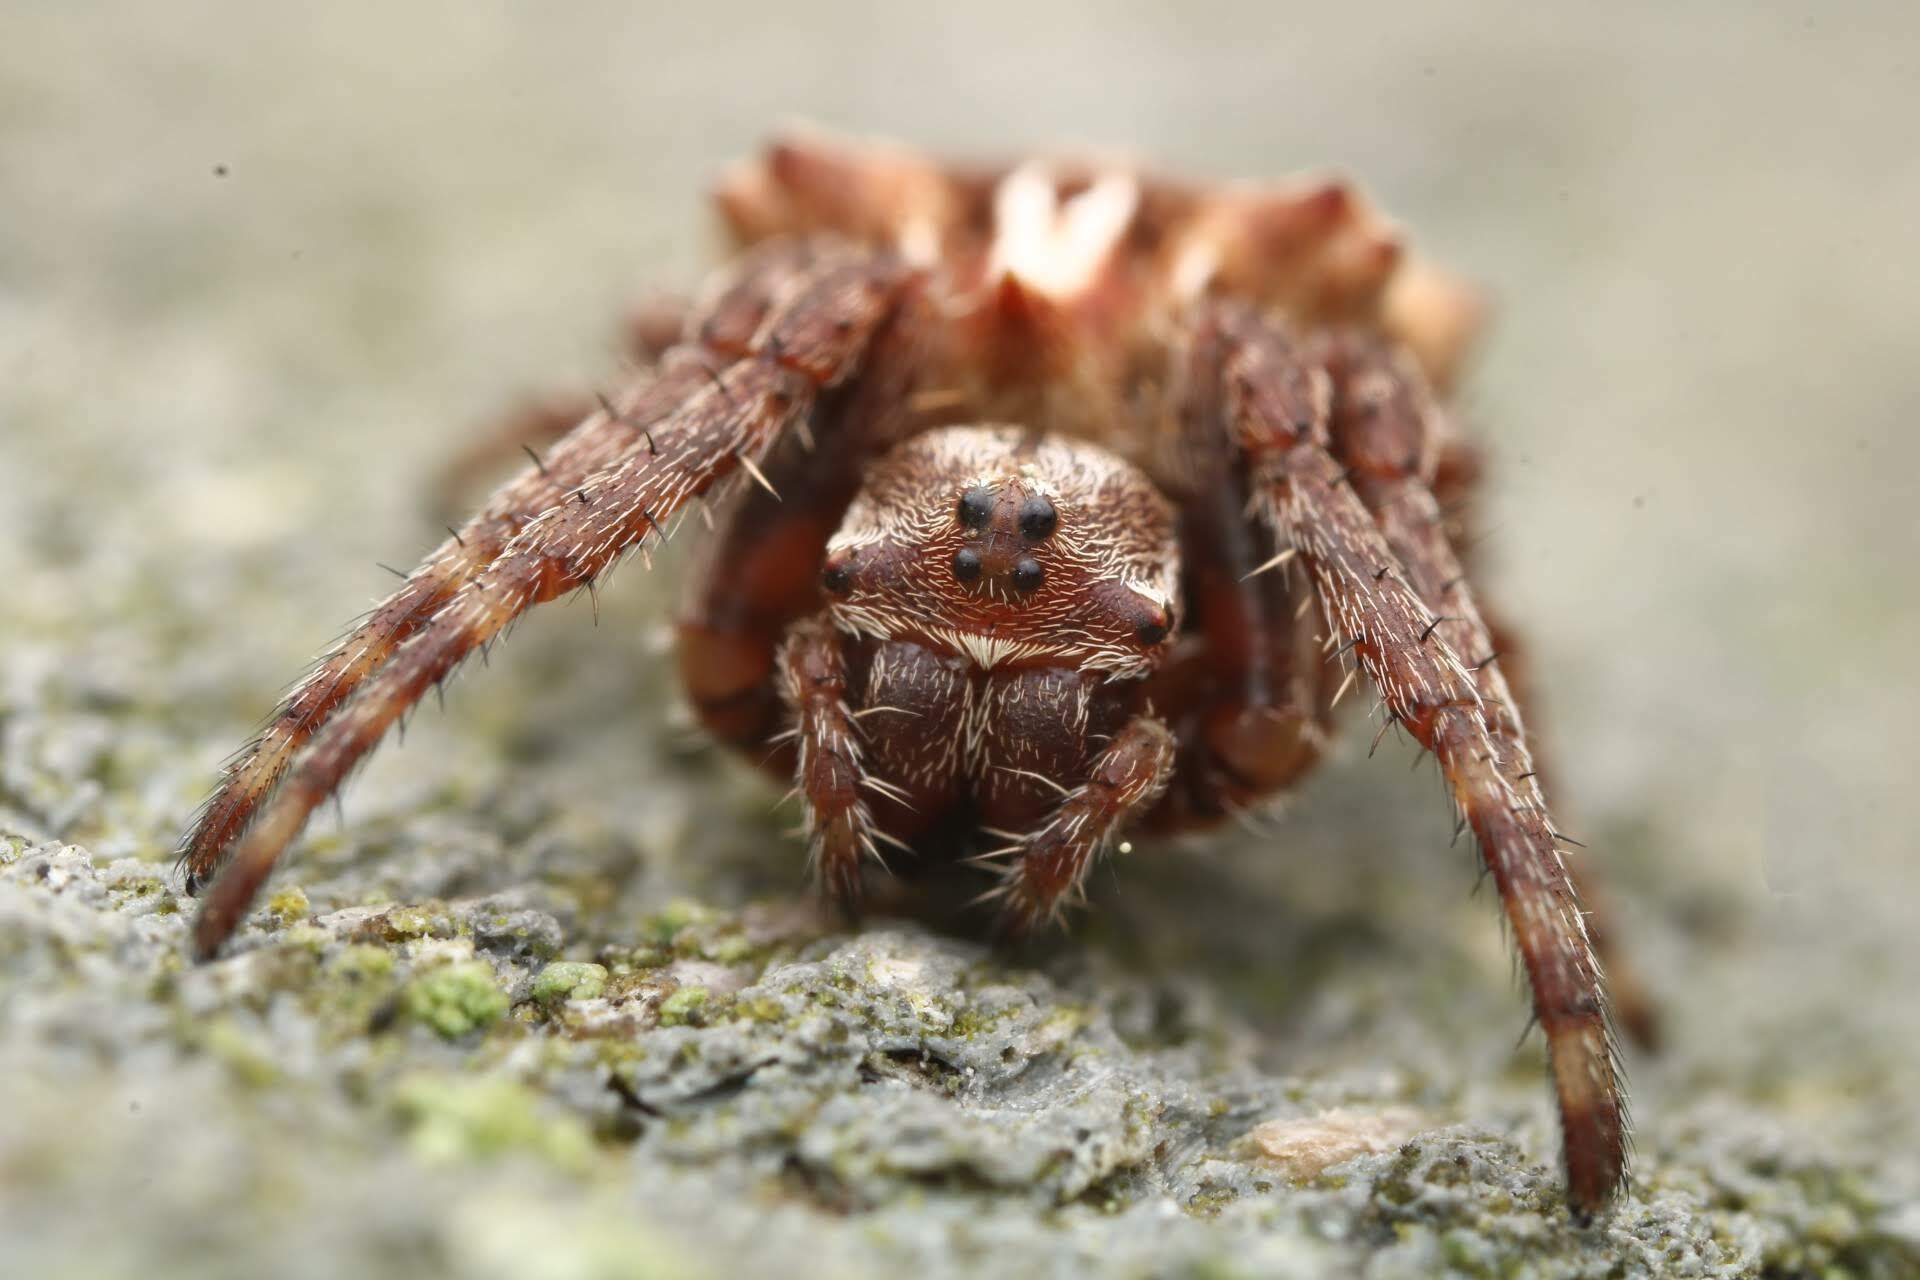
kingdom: Animalia
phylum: Arthropoda
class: Arachnida
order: Araneae
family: Araneidae
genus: Acanthepeira
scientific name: Acanthepeira stellata
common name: Starbellied orbweaver
